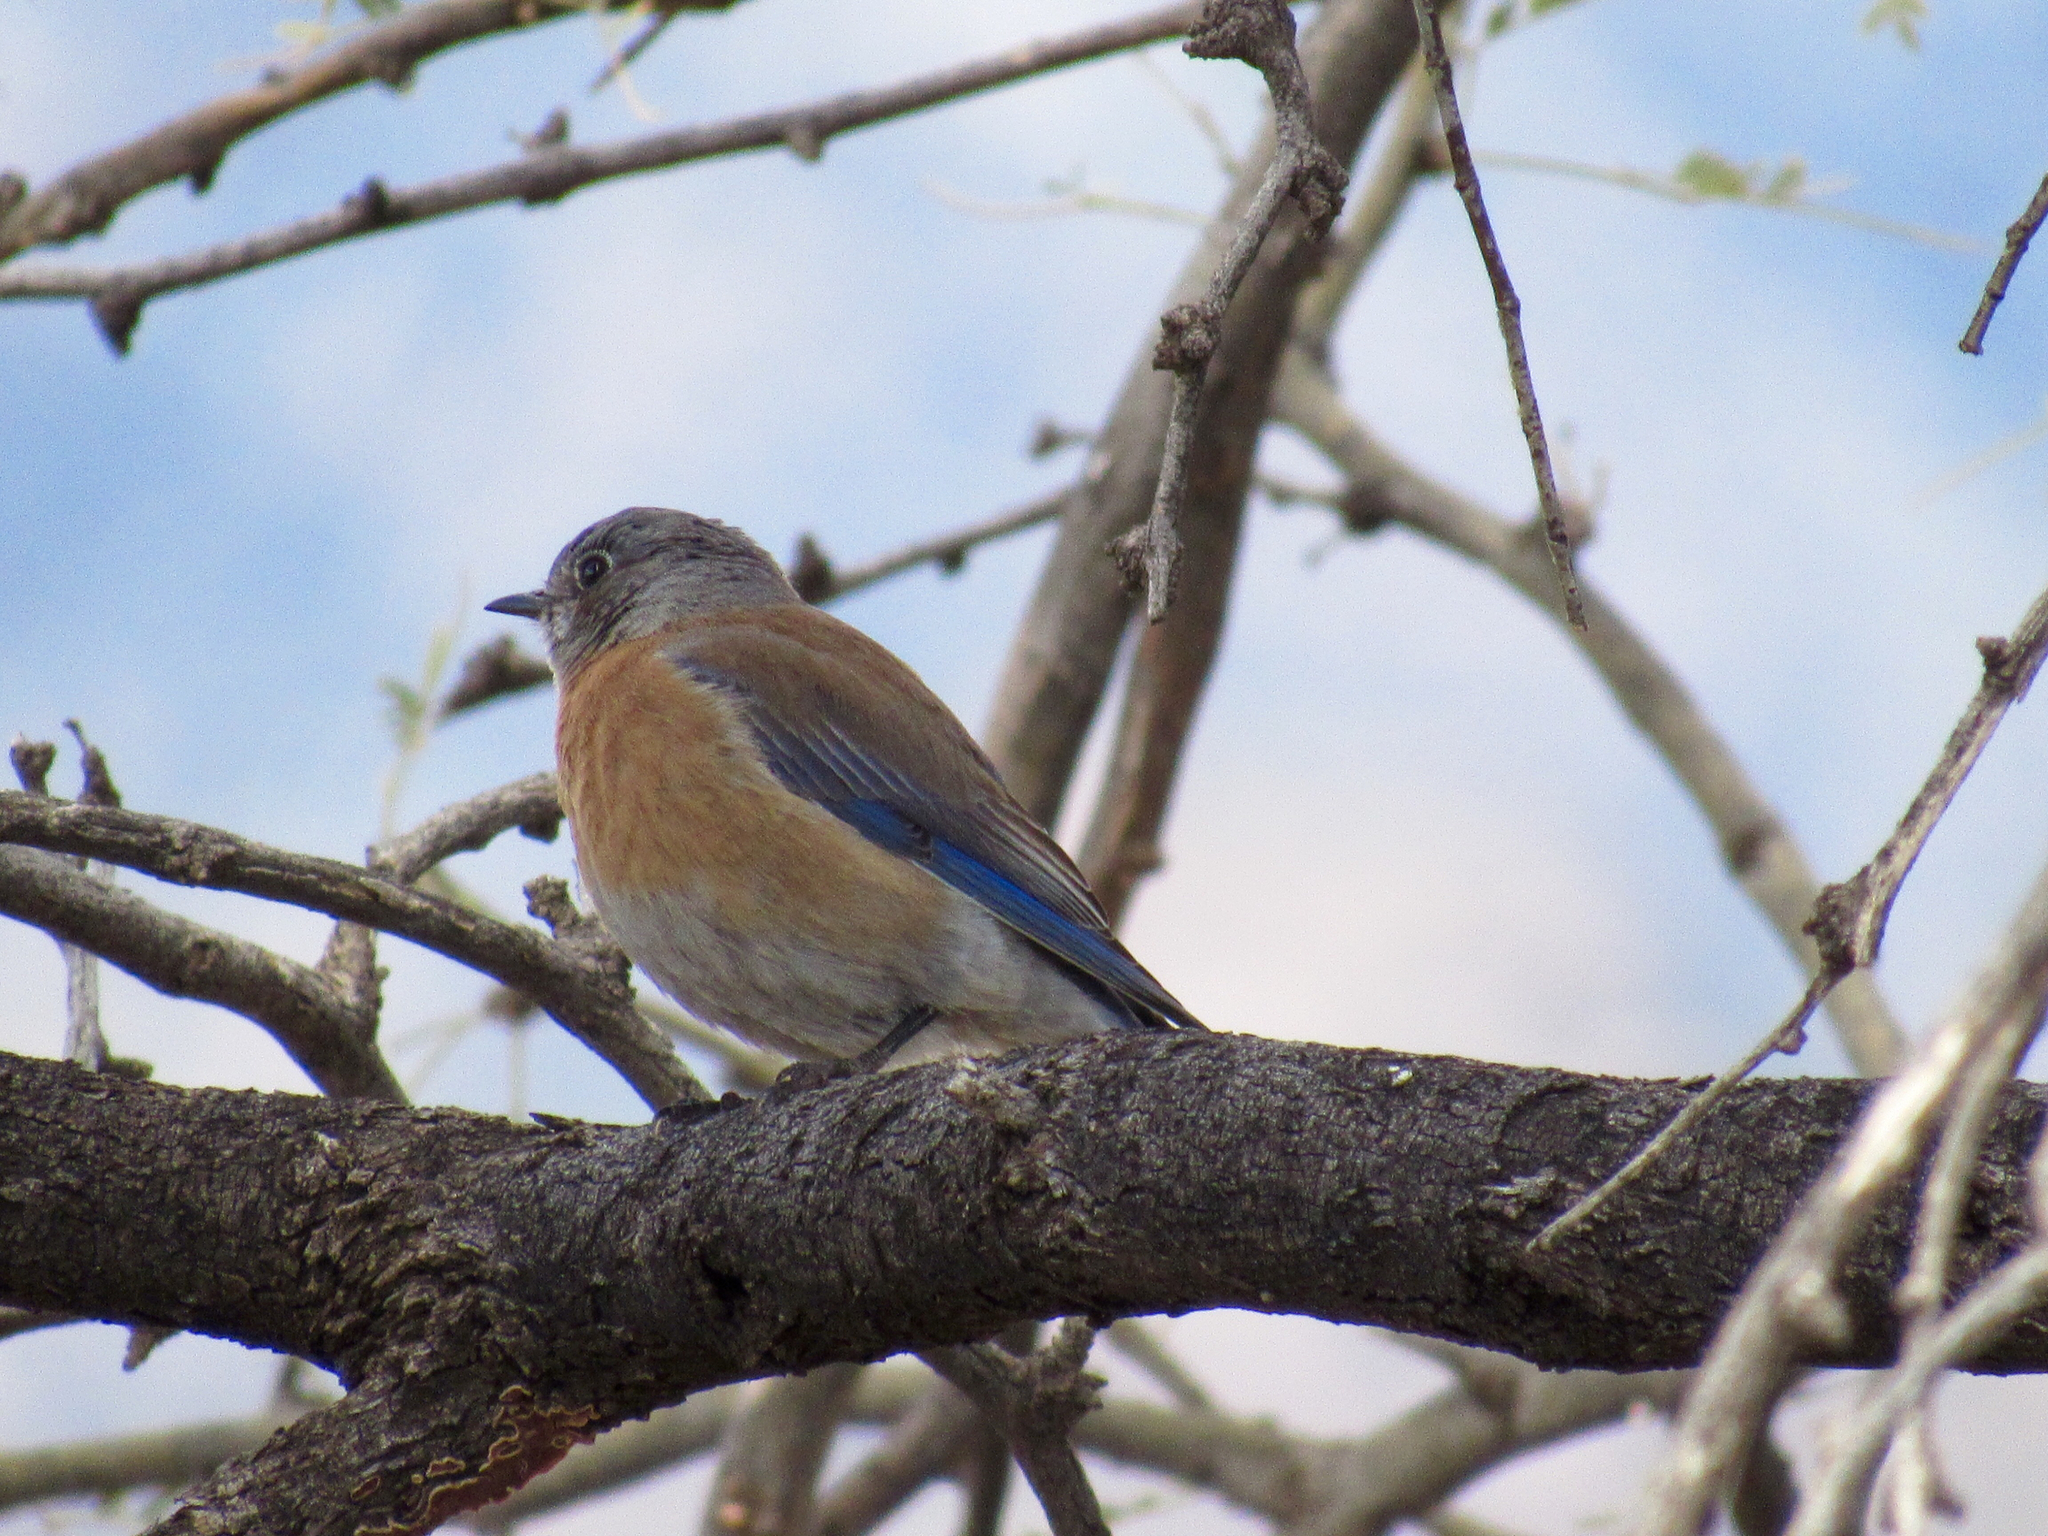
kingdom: Animalia
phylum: Chordata
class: Aves
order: Passeriformes
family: Turdidae
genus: Sialia
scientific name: Sialia mexicana
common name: Western bluebird
